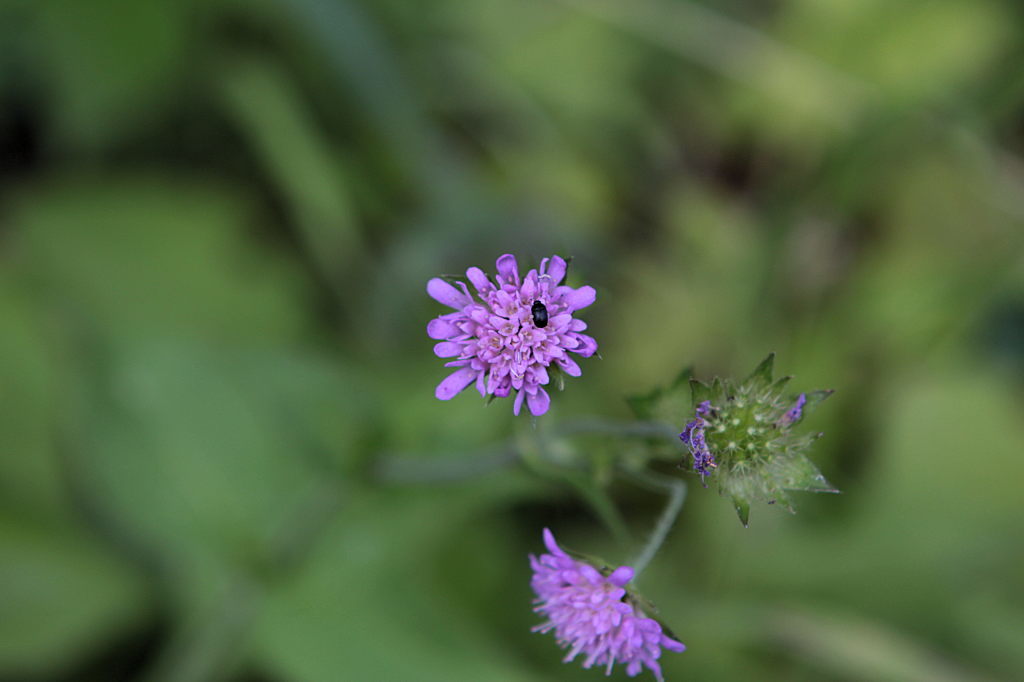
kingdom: Plantae
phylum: Tracheophyta
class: Magnoliopsida
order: Dipsacales
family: Caprifoliaceae
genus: Knautia
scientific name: Knautia dipsacifolia
